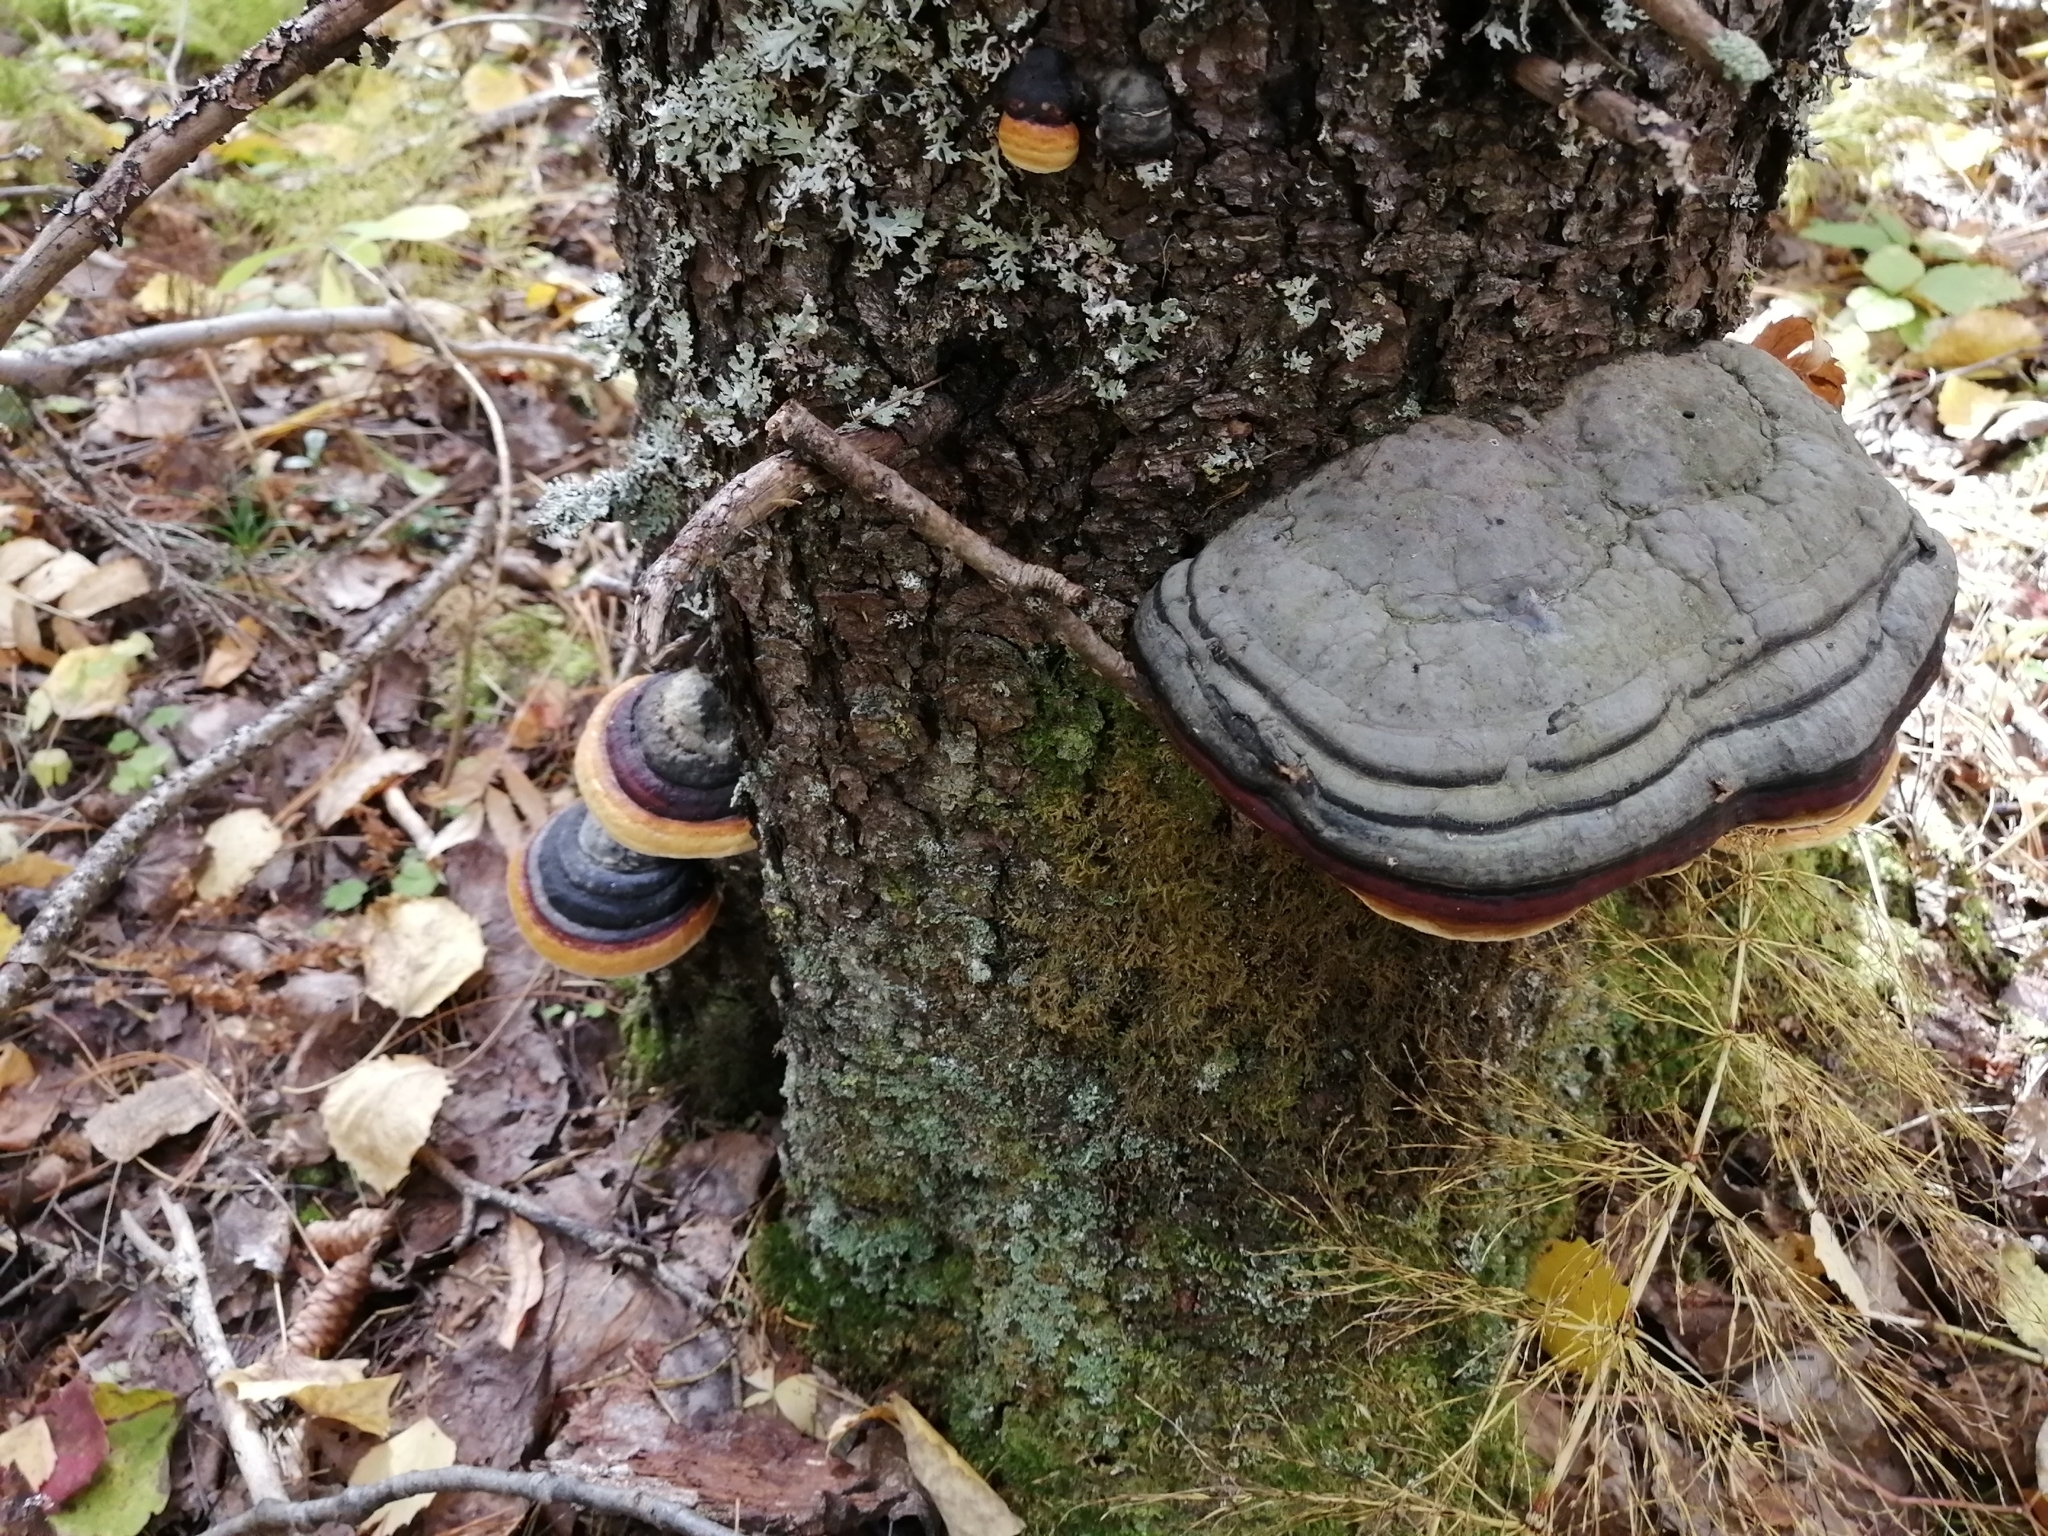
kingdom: Fungi
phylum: Basidiomycota
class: Agaricomycetes
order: Polyporales
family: Fomitopsidaceae
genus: Fomitopsis
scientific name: Fomitopsis pinicola
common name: Red-belted bracket
